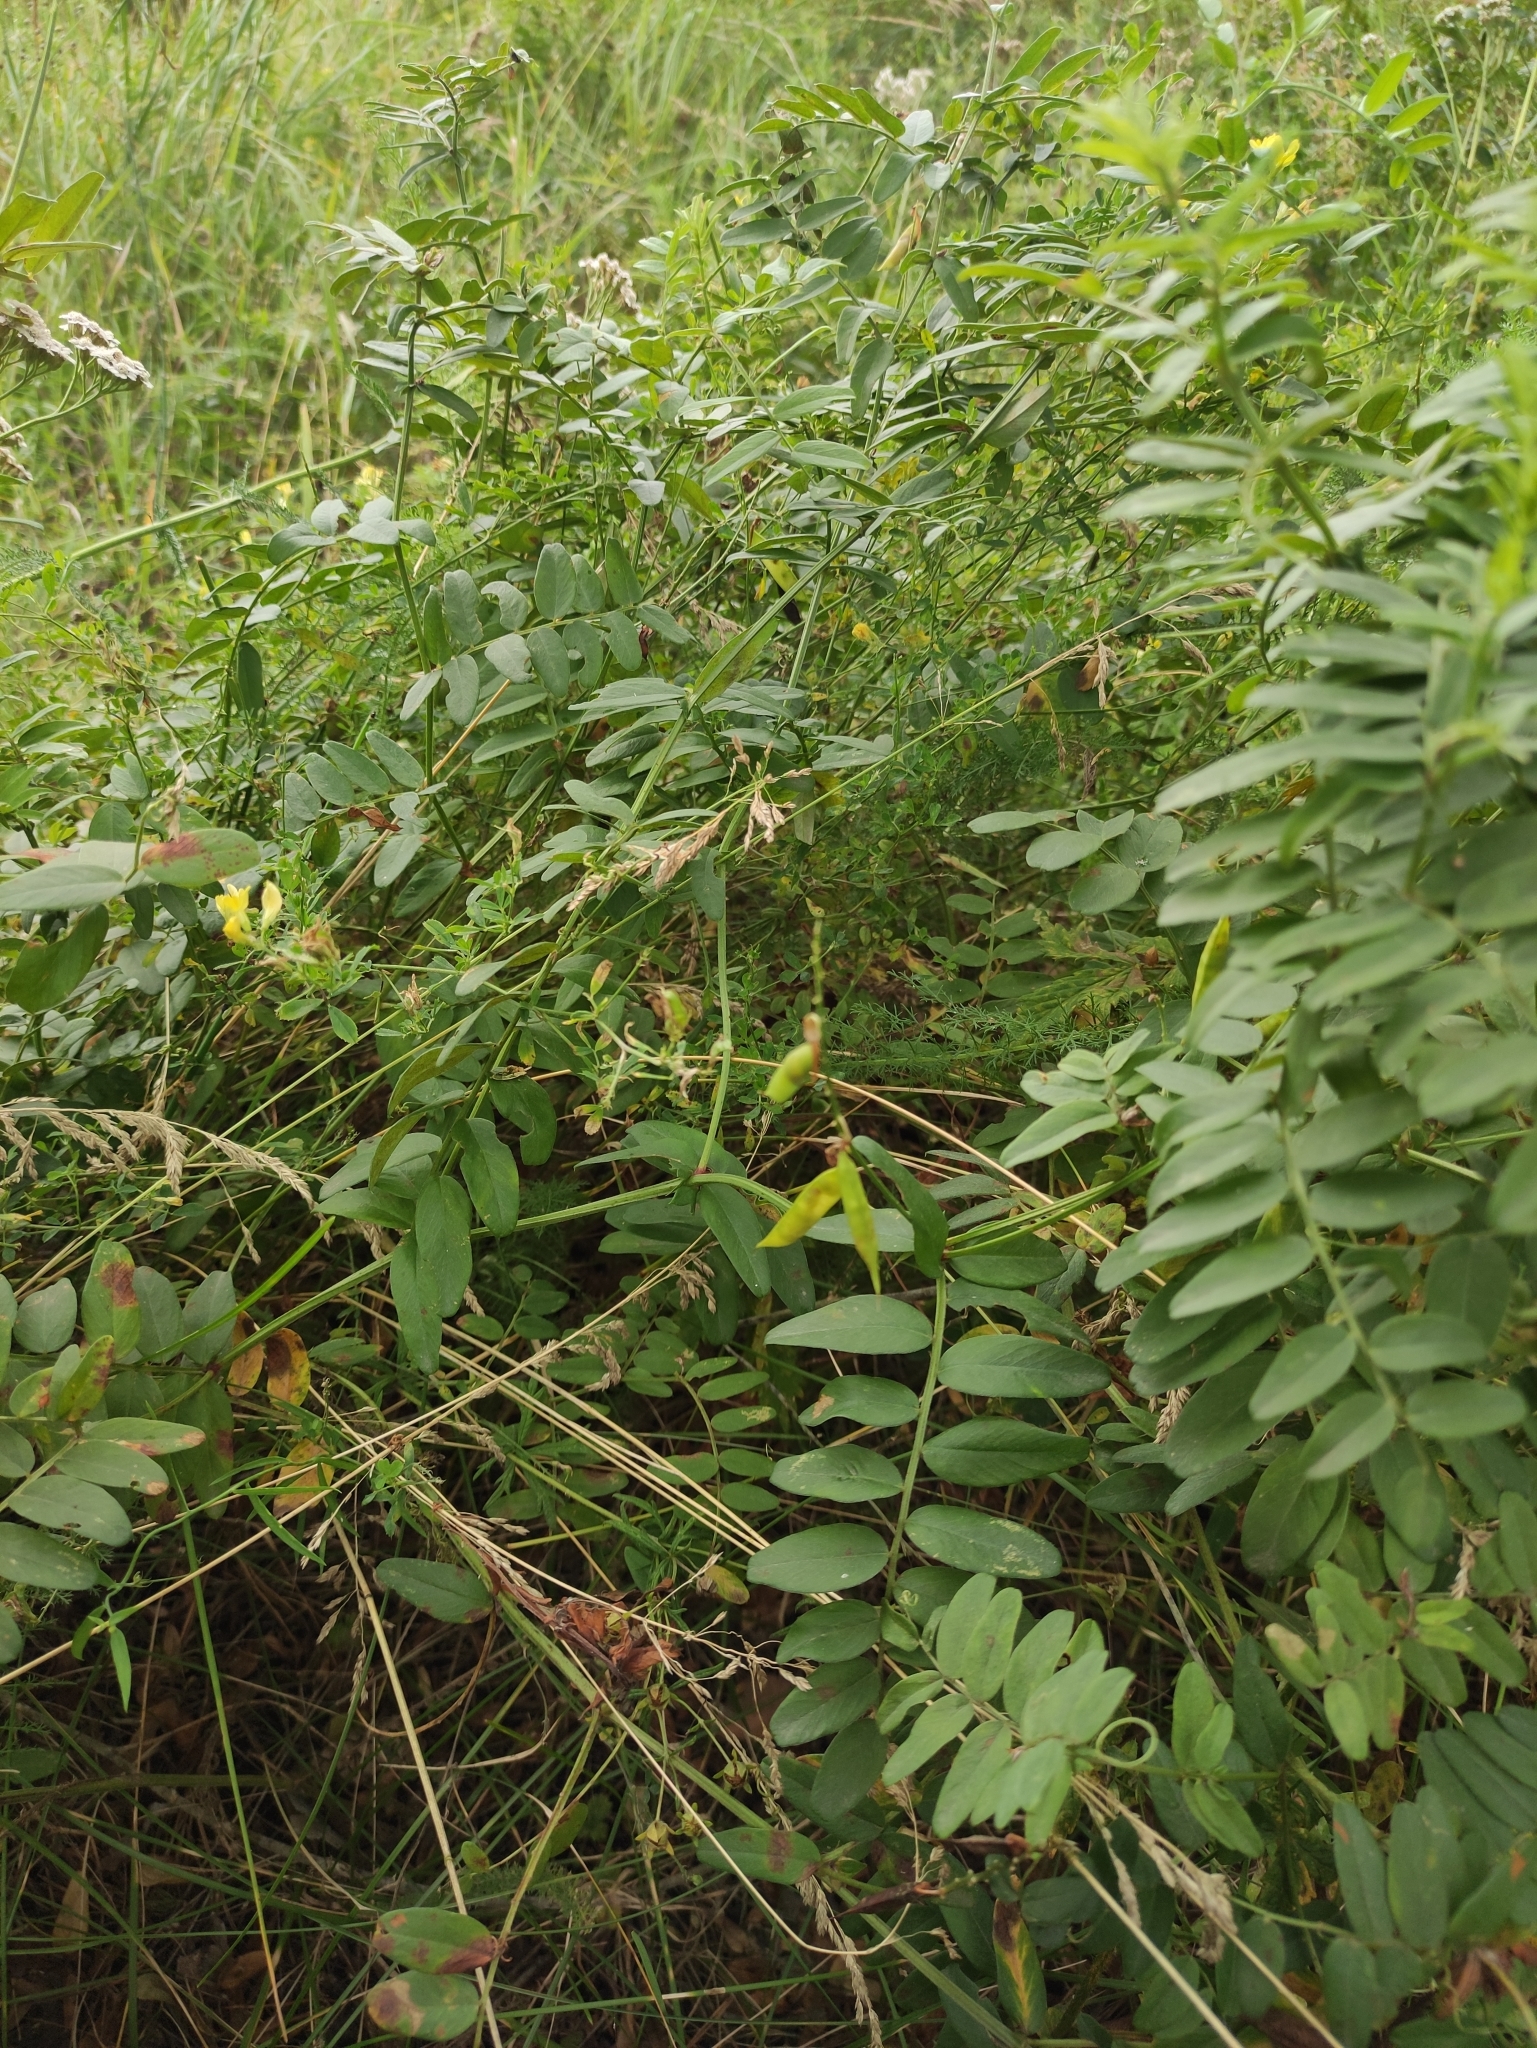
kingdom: Plantae
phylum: Tracheophyta
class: Magnoliopsida
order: Fabales
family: Fabaceae
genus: Vicia
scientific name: Vicia amoena
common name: Cheder ebs
